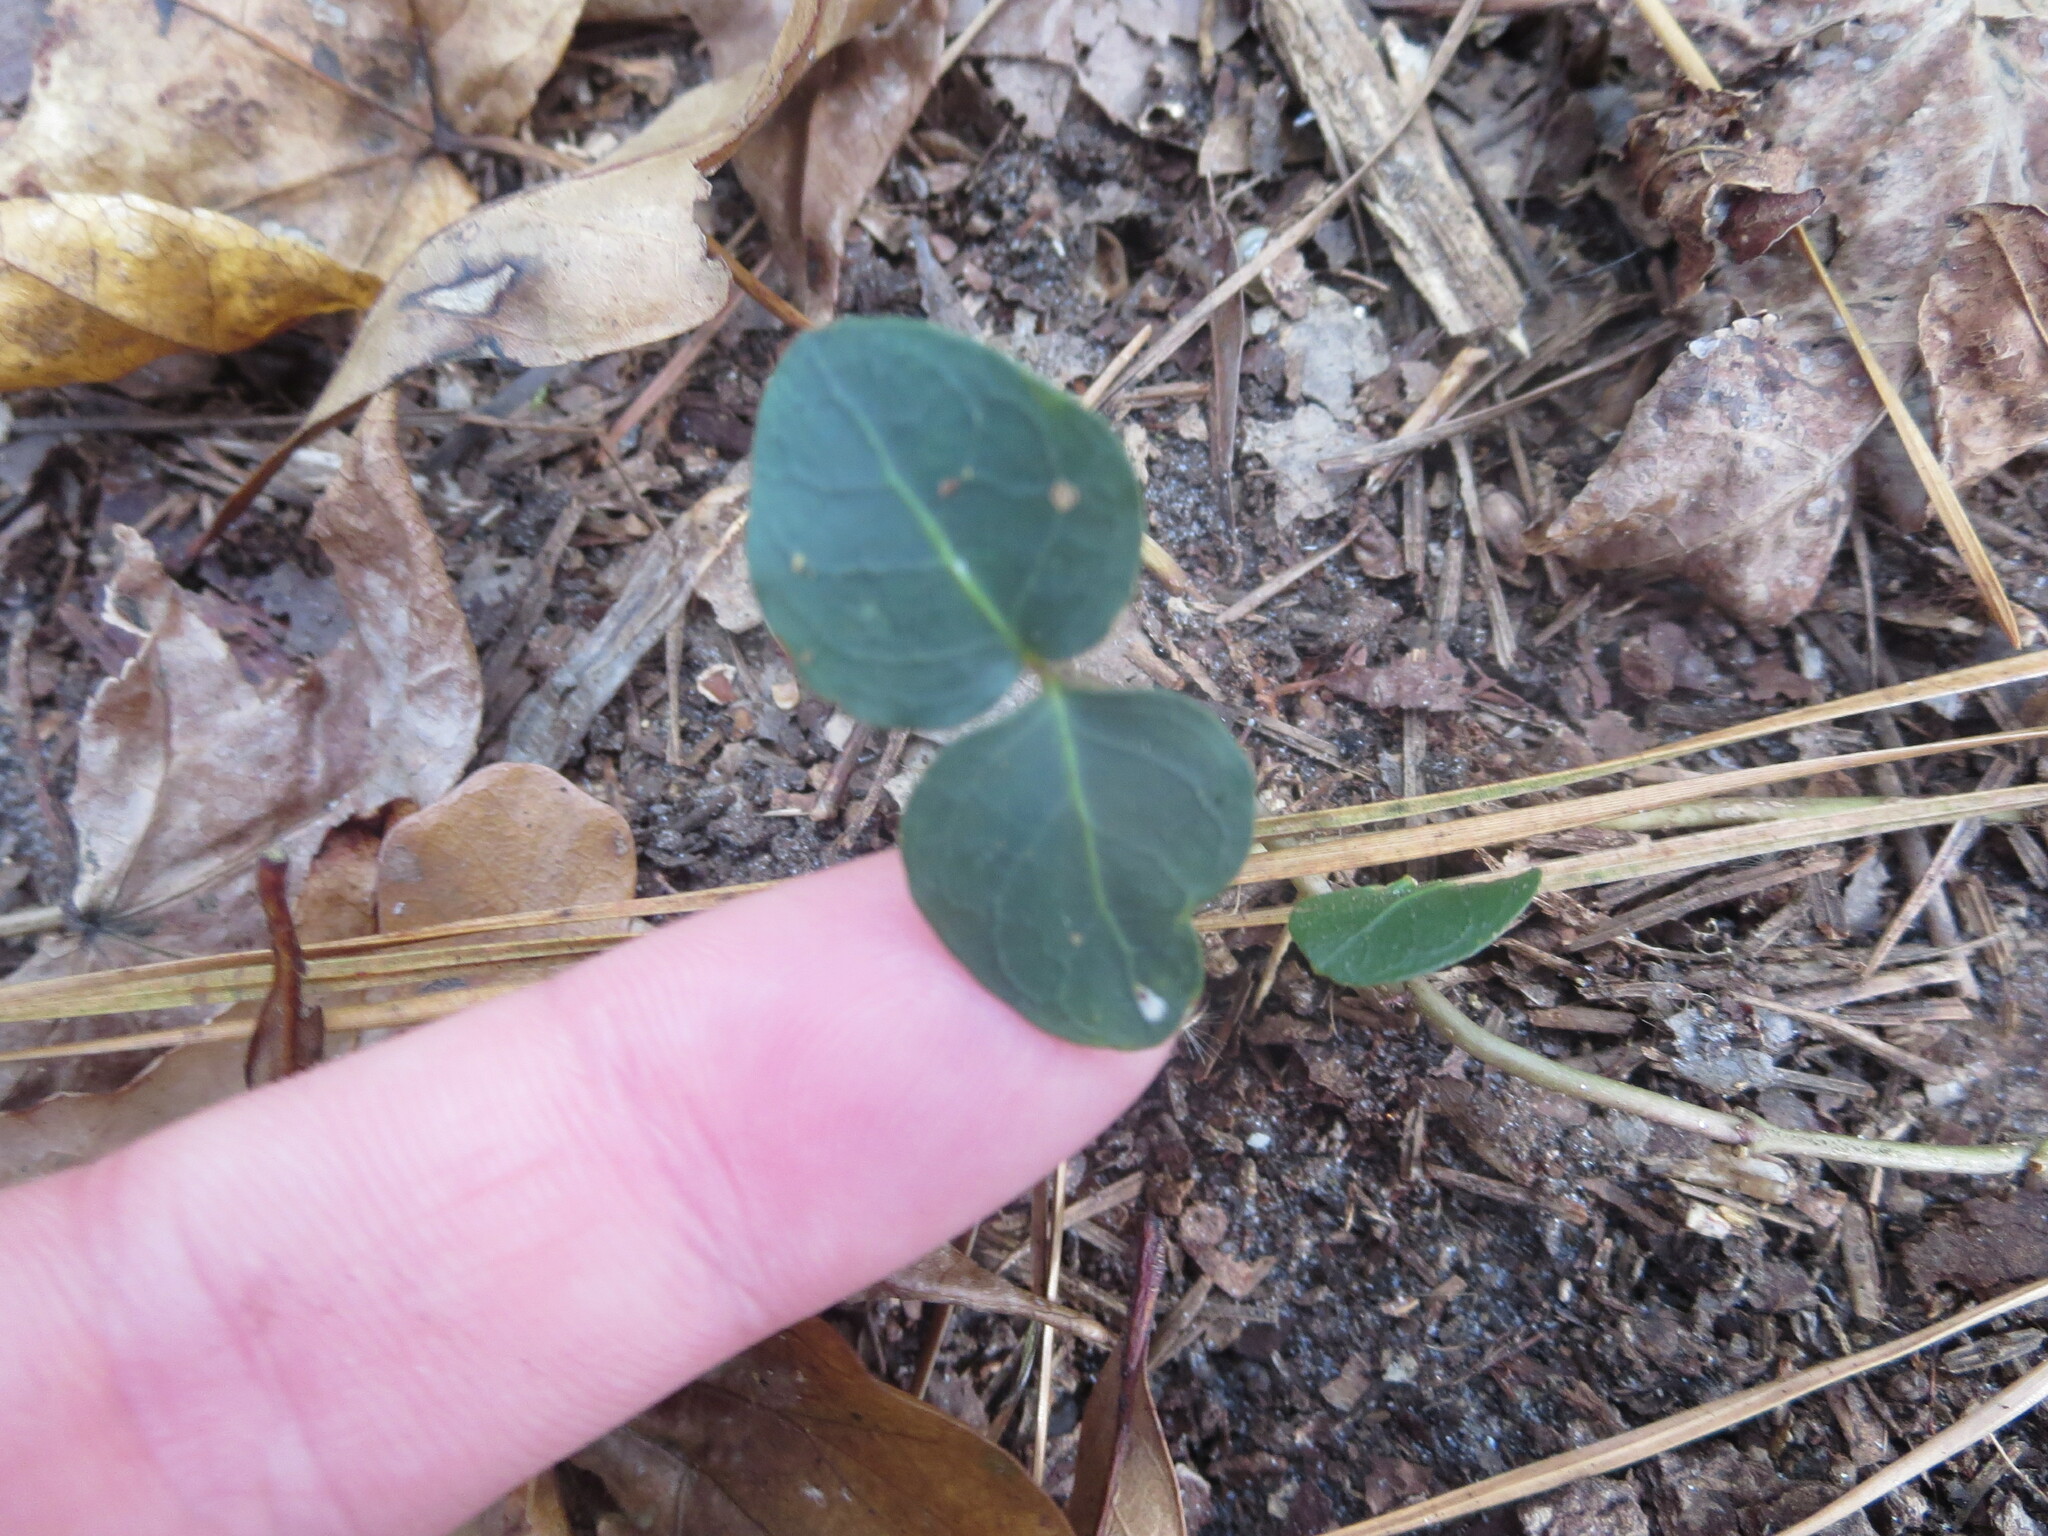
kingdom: Plantae
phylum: Tracheophyta
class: Magnoliopsida
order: Gentianales
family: Rubiaceae
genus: Mitchella
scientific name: Mitchella repens
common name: Partridge-berry
